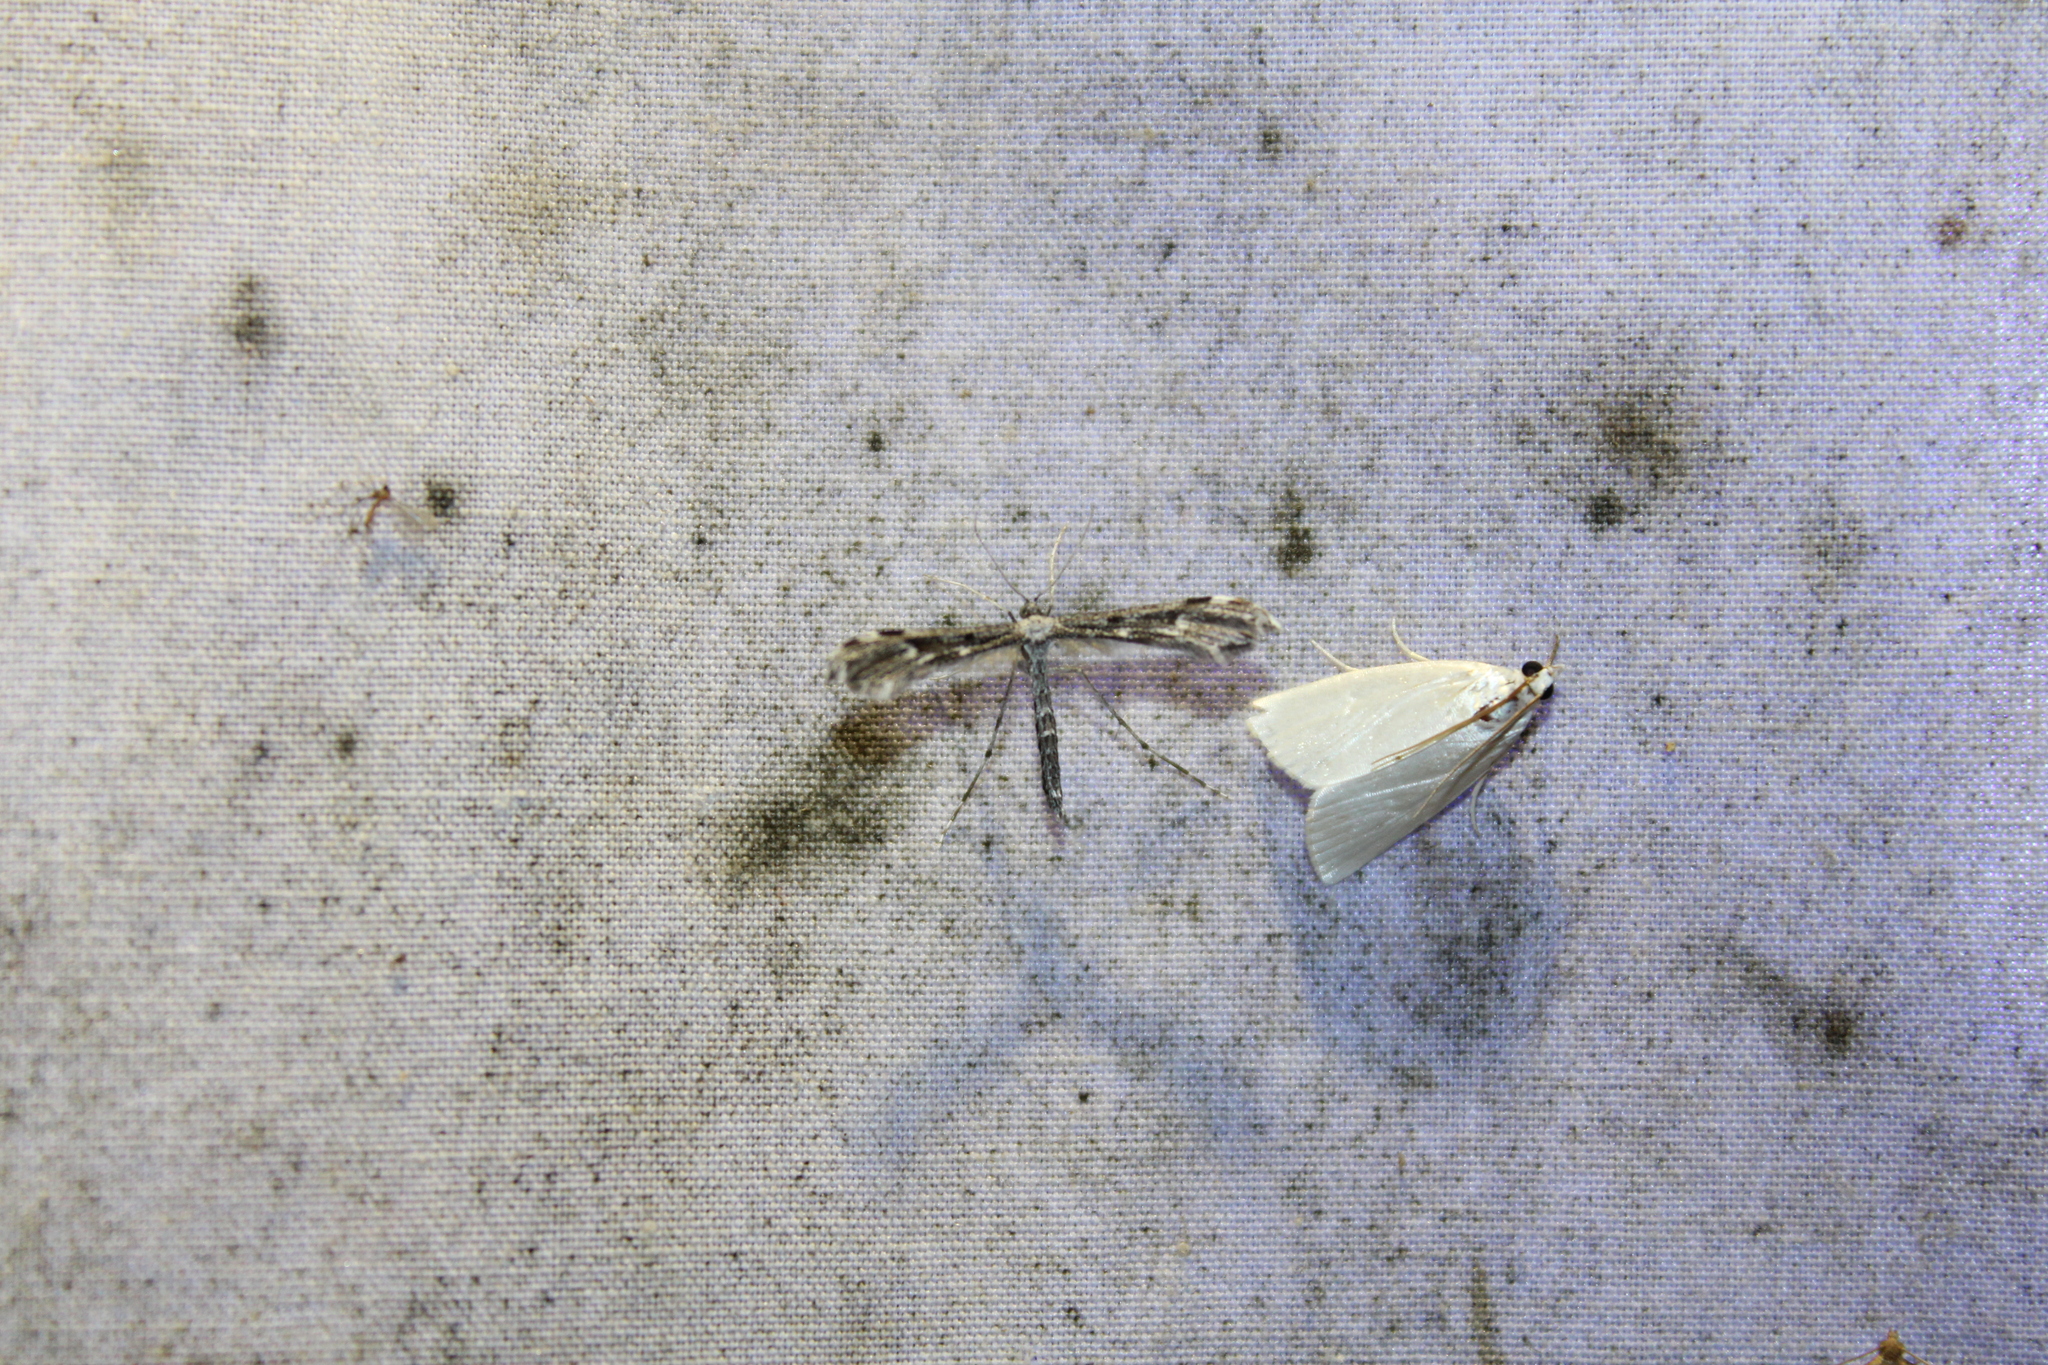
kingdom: Animalia
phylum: Arthropoda
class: Insecta
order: Lepidoptera
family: Pterophoridae
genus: Hellinsia
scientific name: Hellinsia inquinatus
